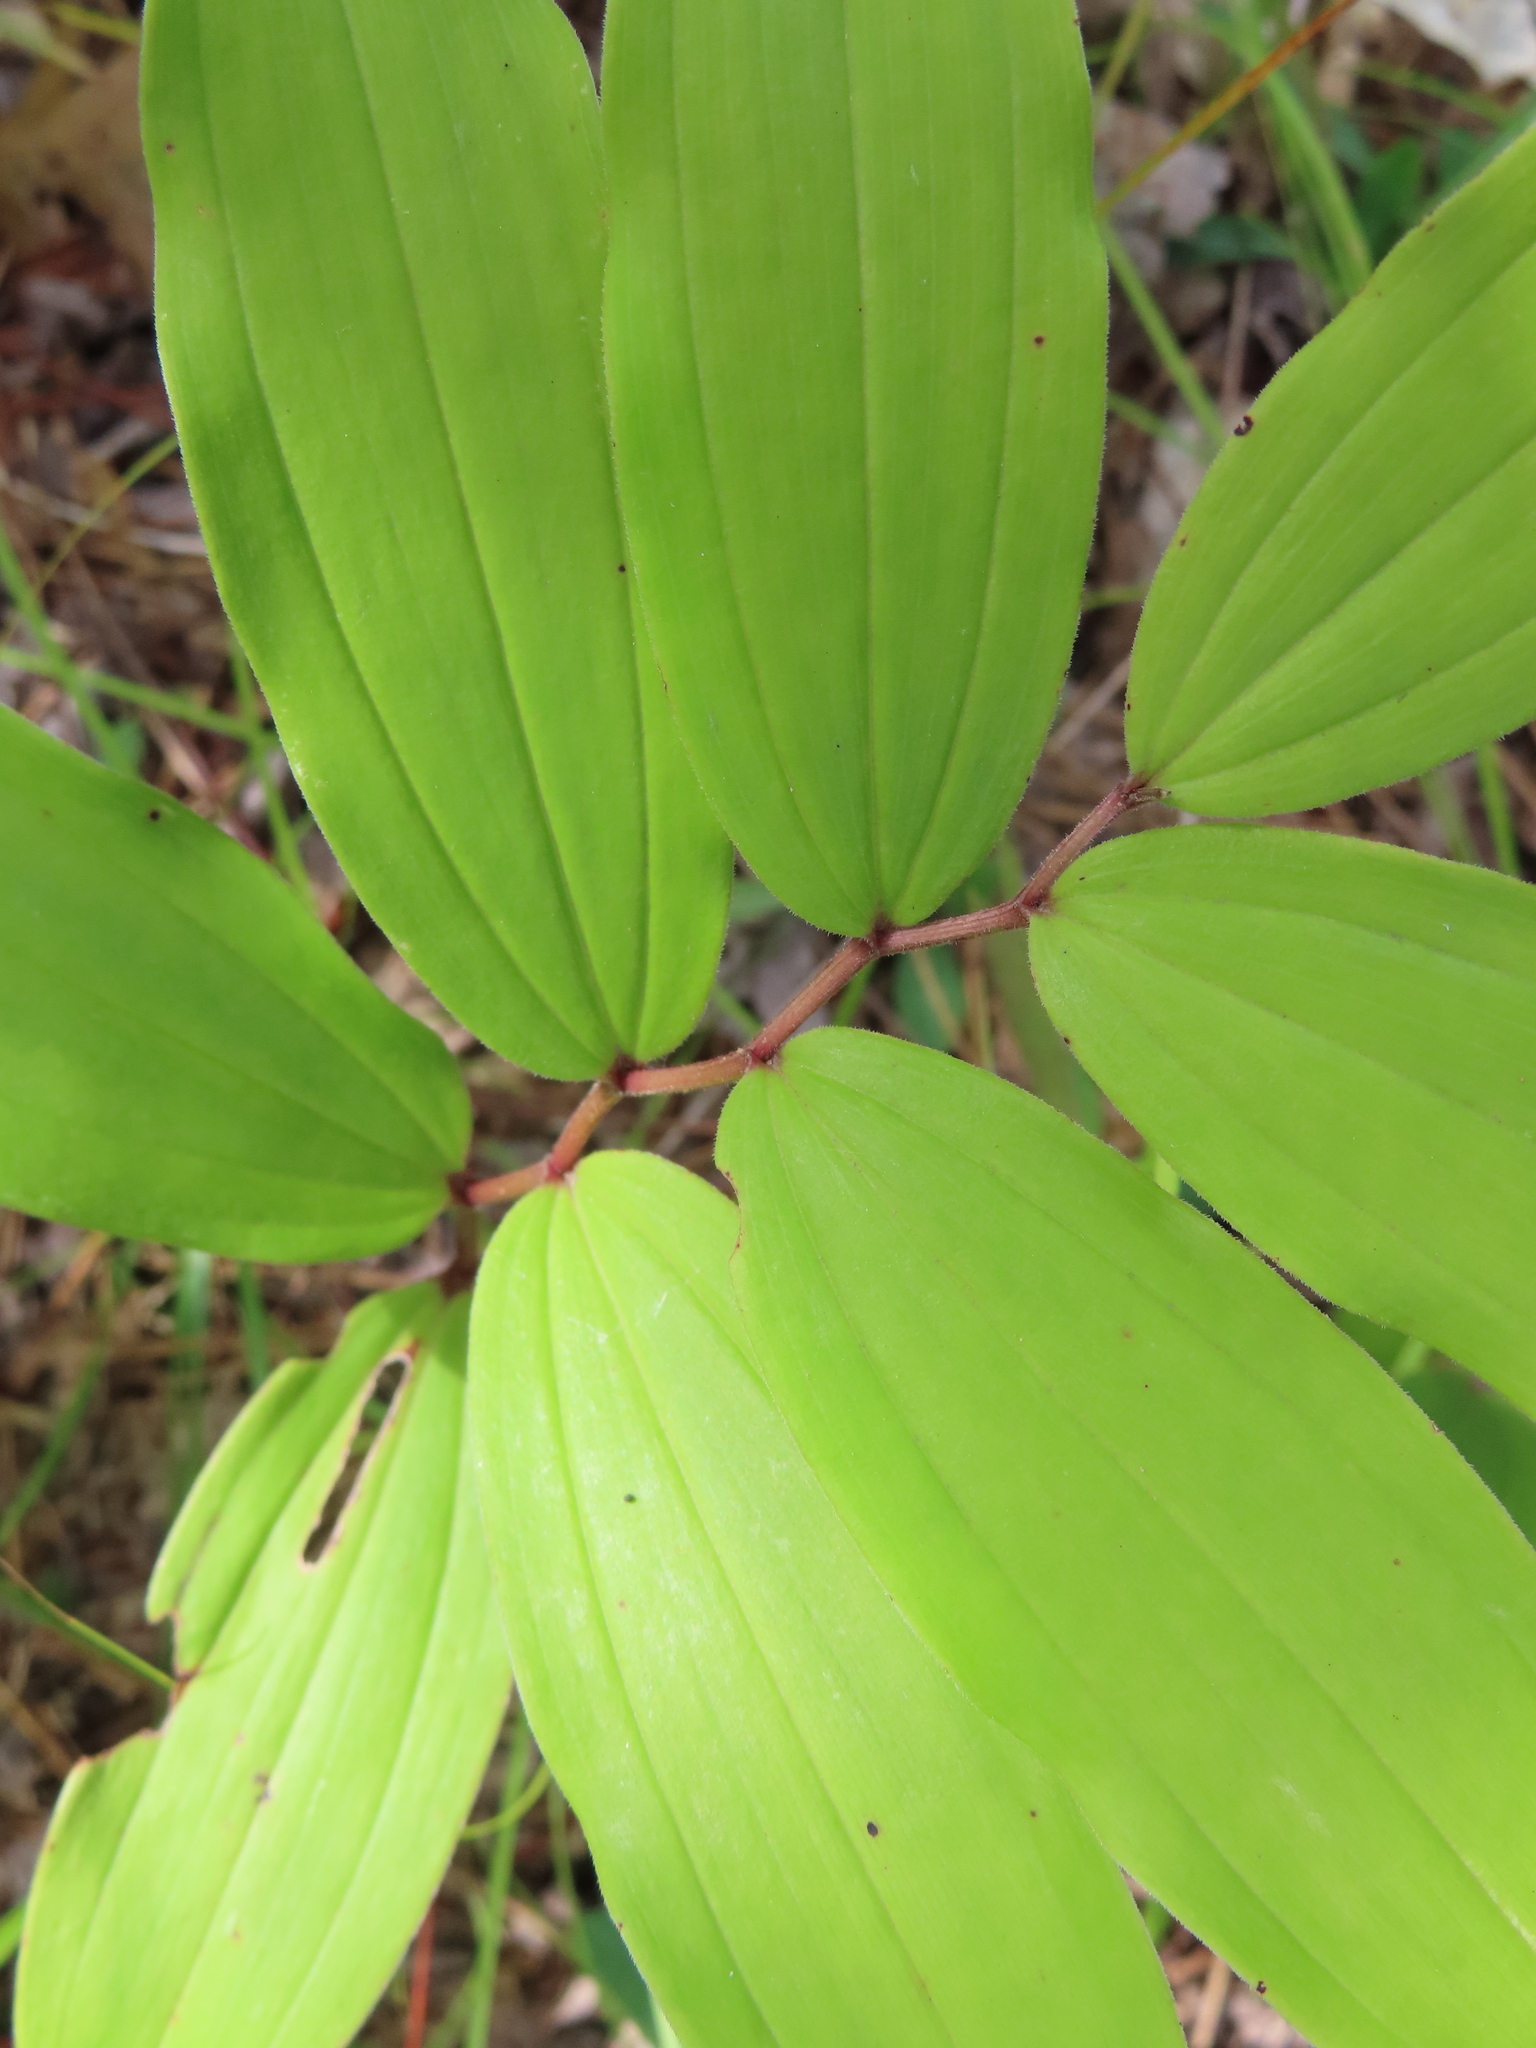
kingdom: Plantae
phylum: Tracheophyta
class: Liliopsida
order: Asparagales
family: Asparagaceae
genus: Maianthemum
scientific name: Maianthemum racemosum
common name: False spikenard
